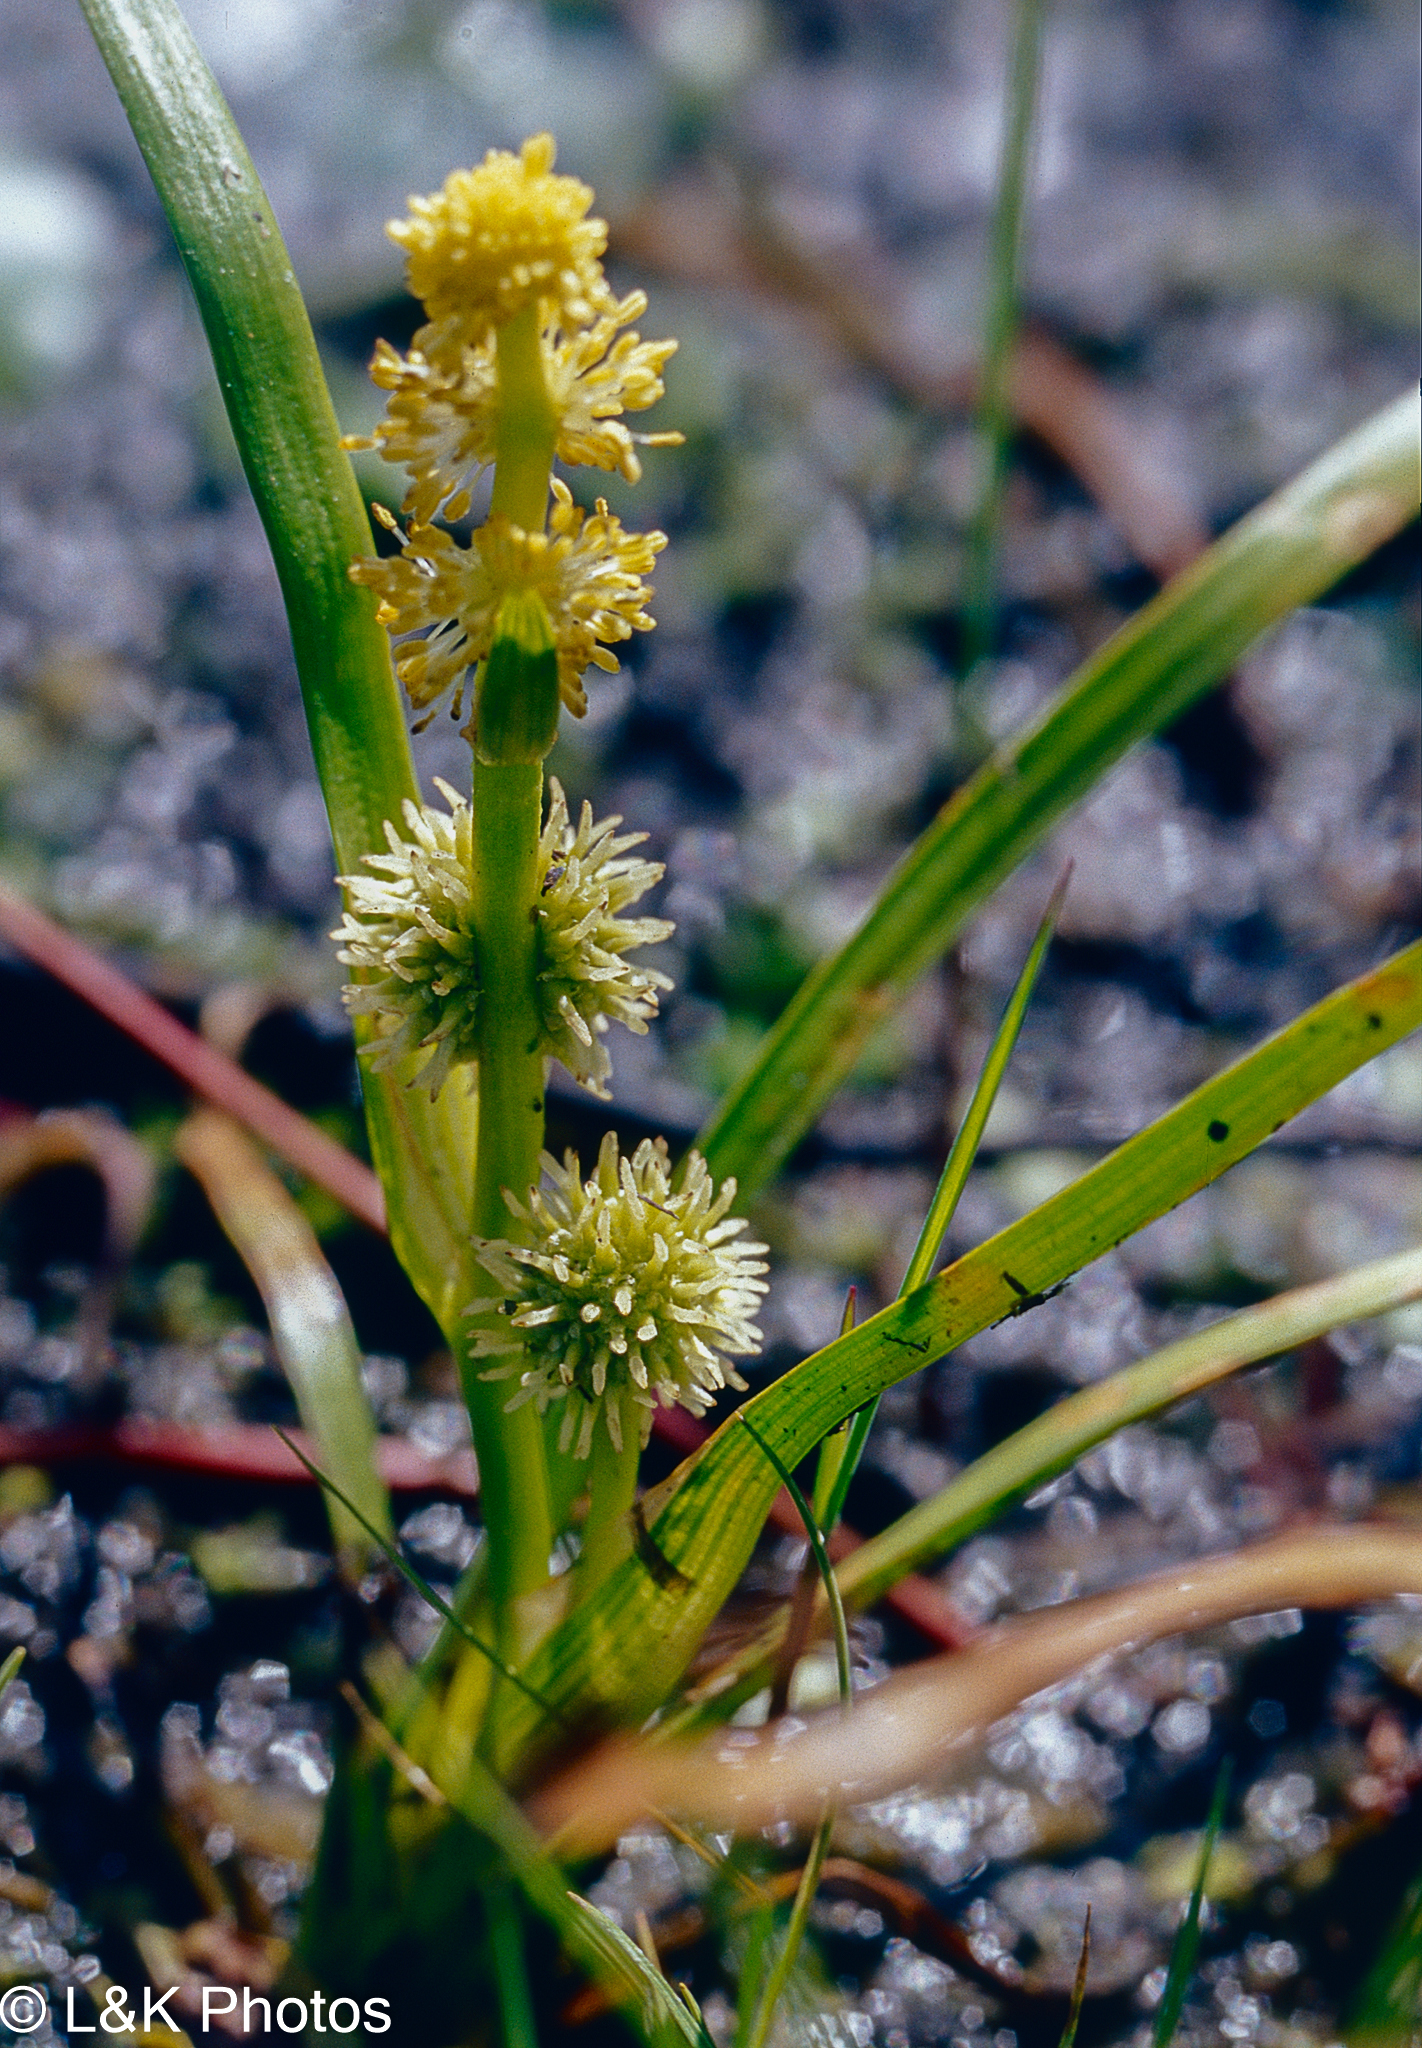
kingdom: Plantae
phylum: Tracheophyta
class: Liliopsida
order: Poales
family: Typhaceae
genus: Sparganium
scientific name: Sparganium emersum
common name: Unbranched bur-reed
